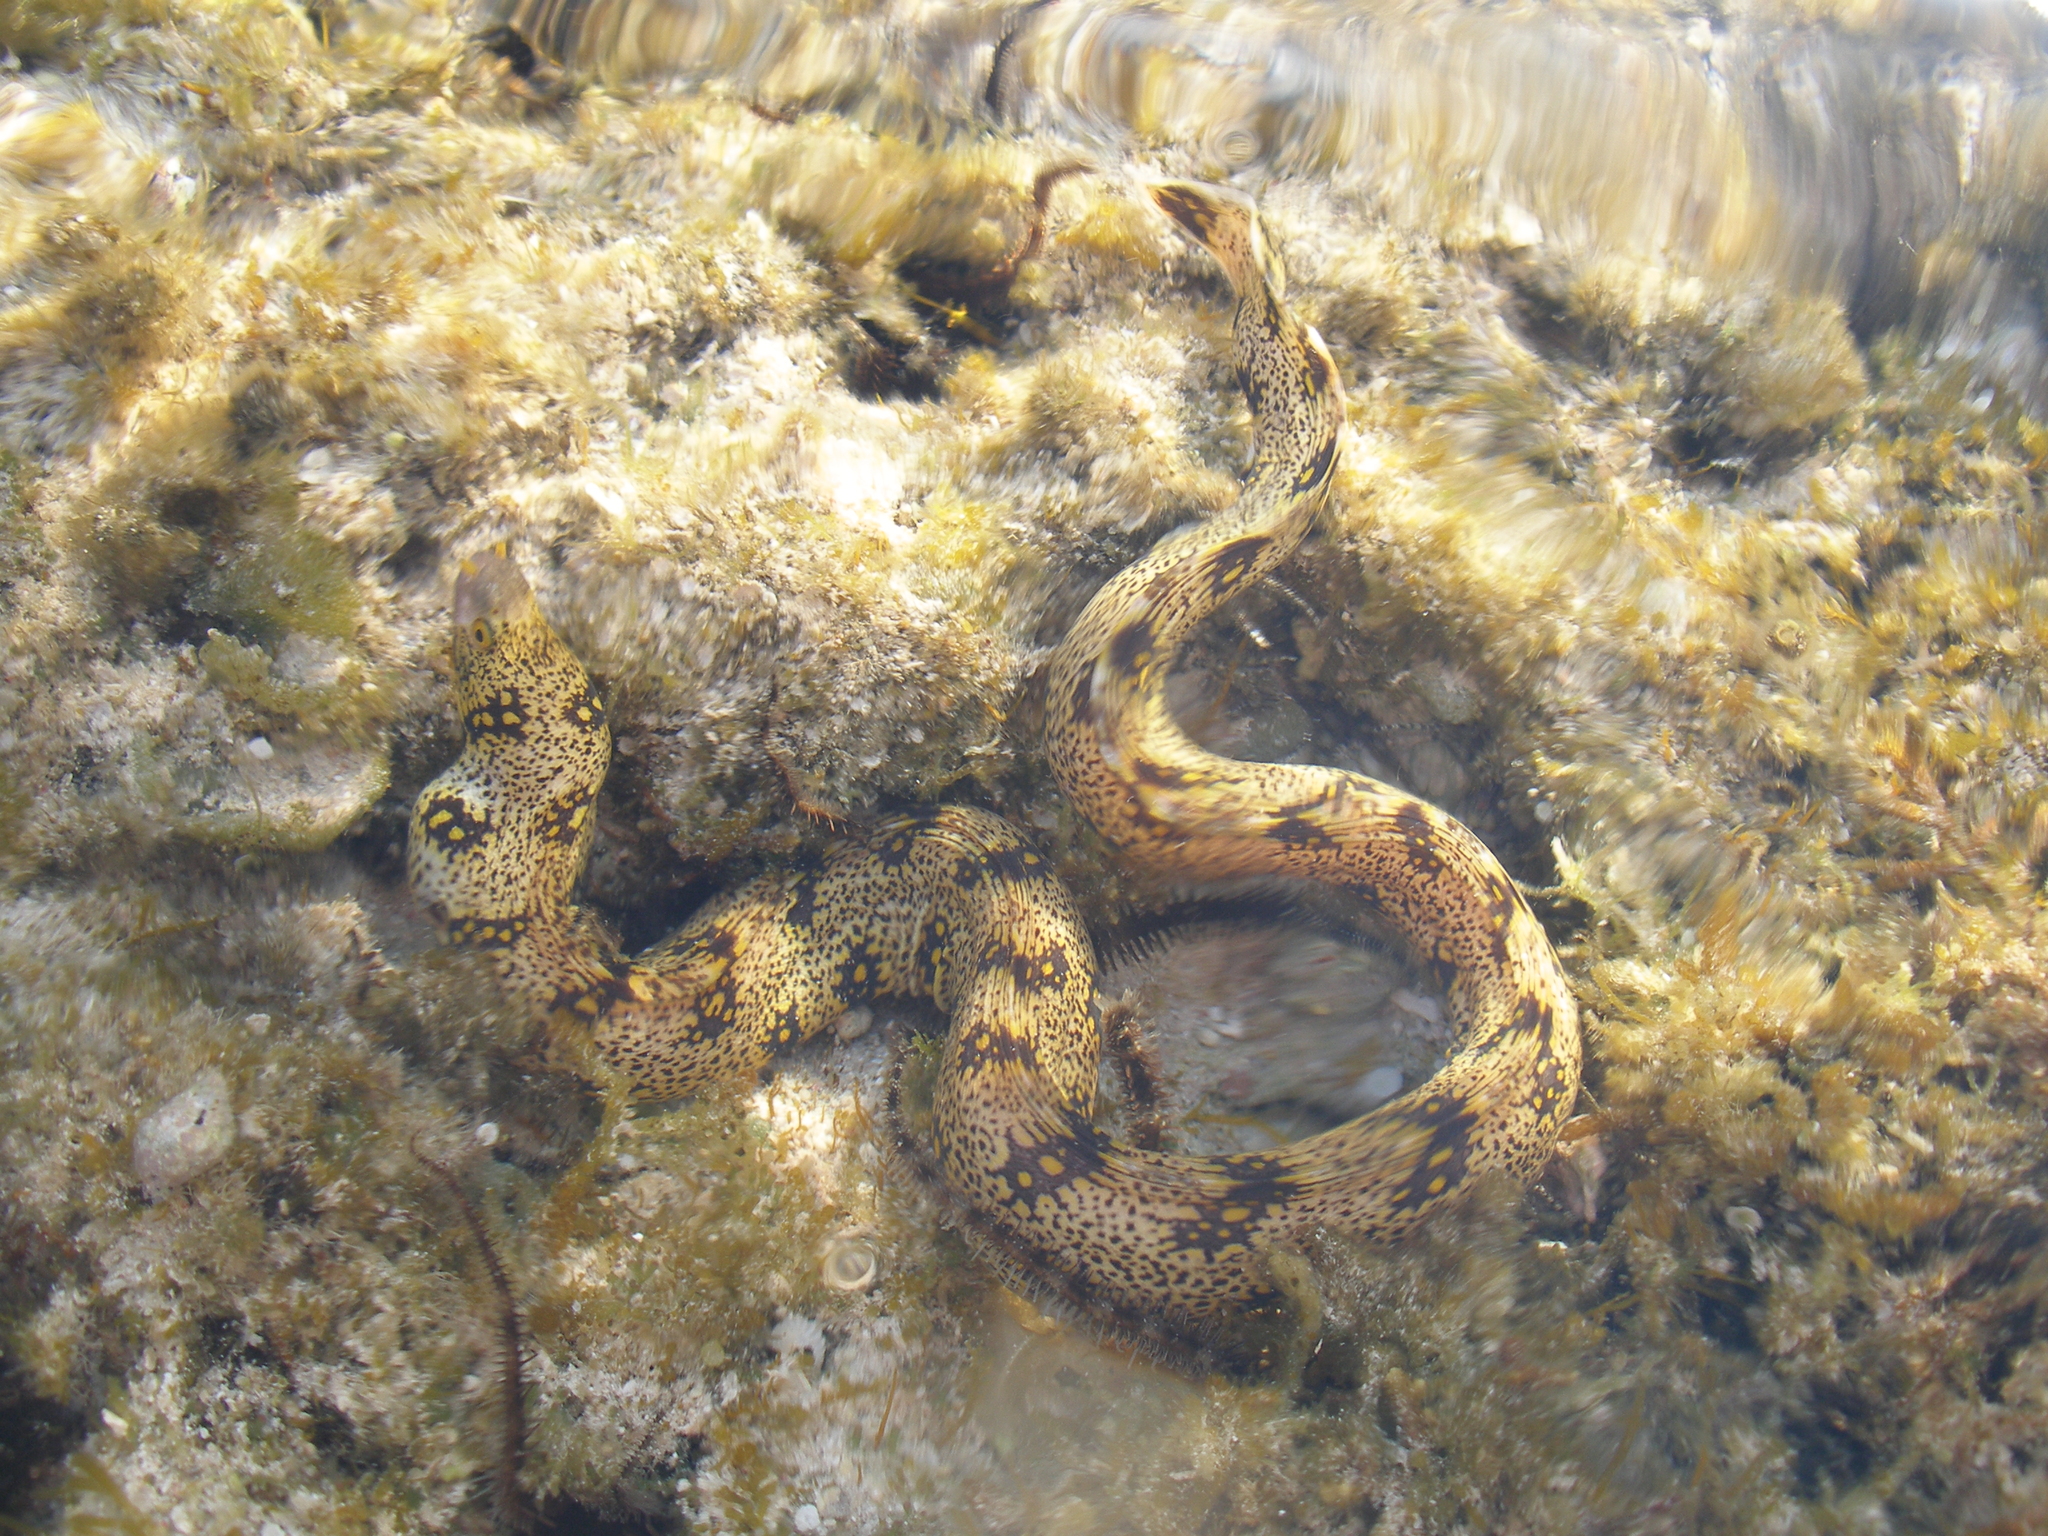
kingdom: Animalia
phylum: Chordata
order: Anguilliformes
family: Muraenidae
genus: Echidna
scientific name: Echidna nebulosa
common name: Snowflake moray
